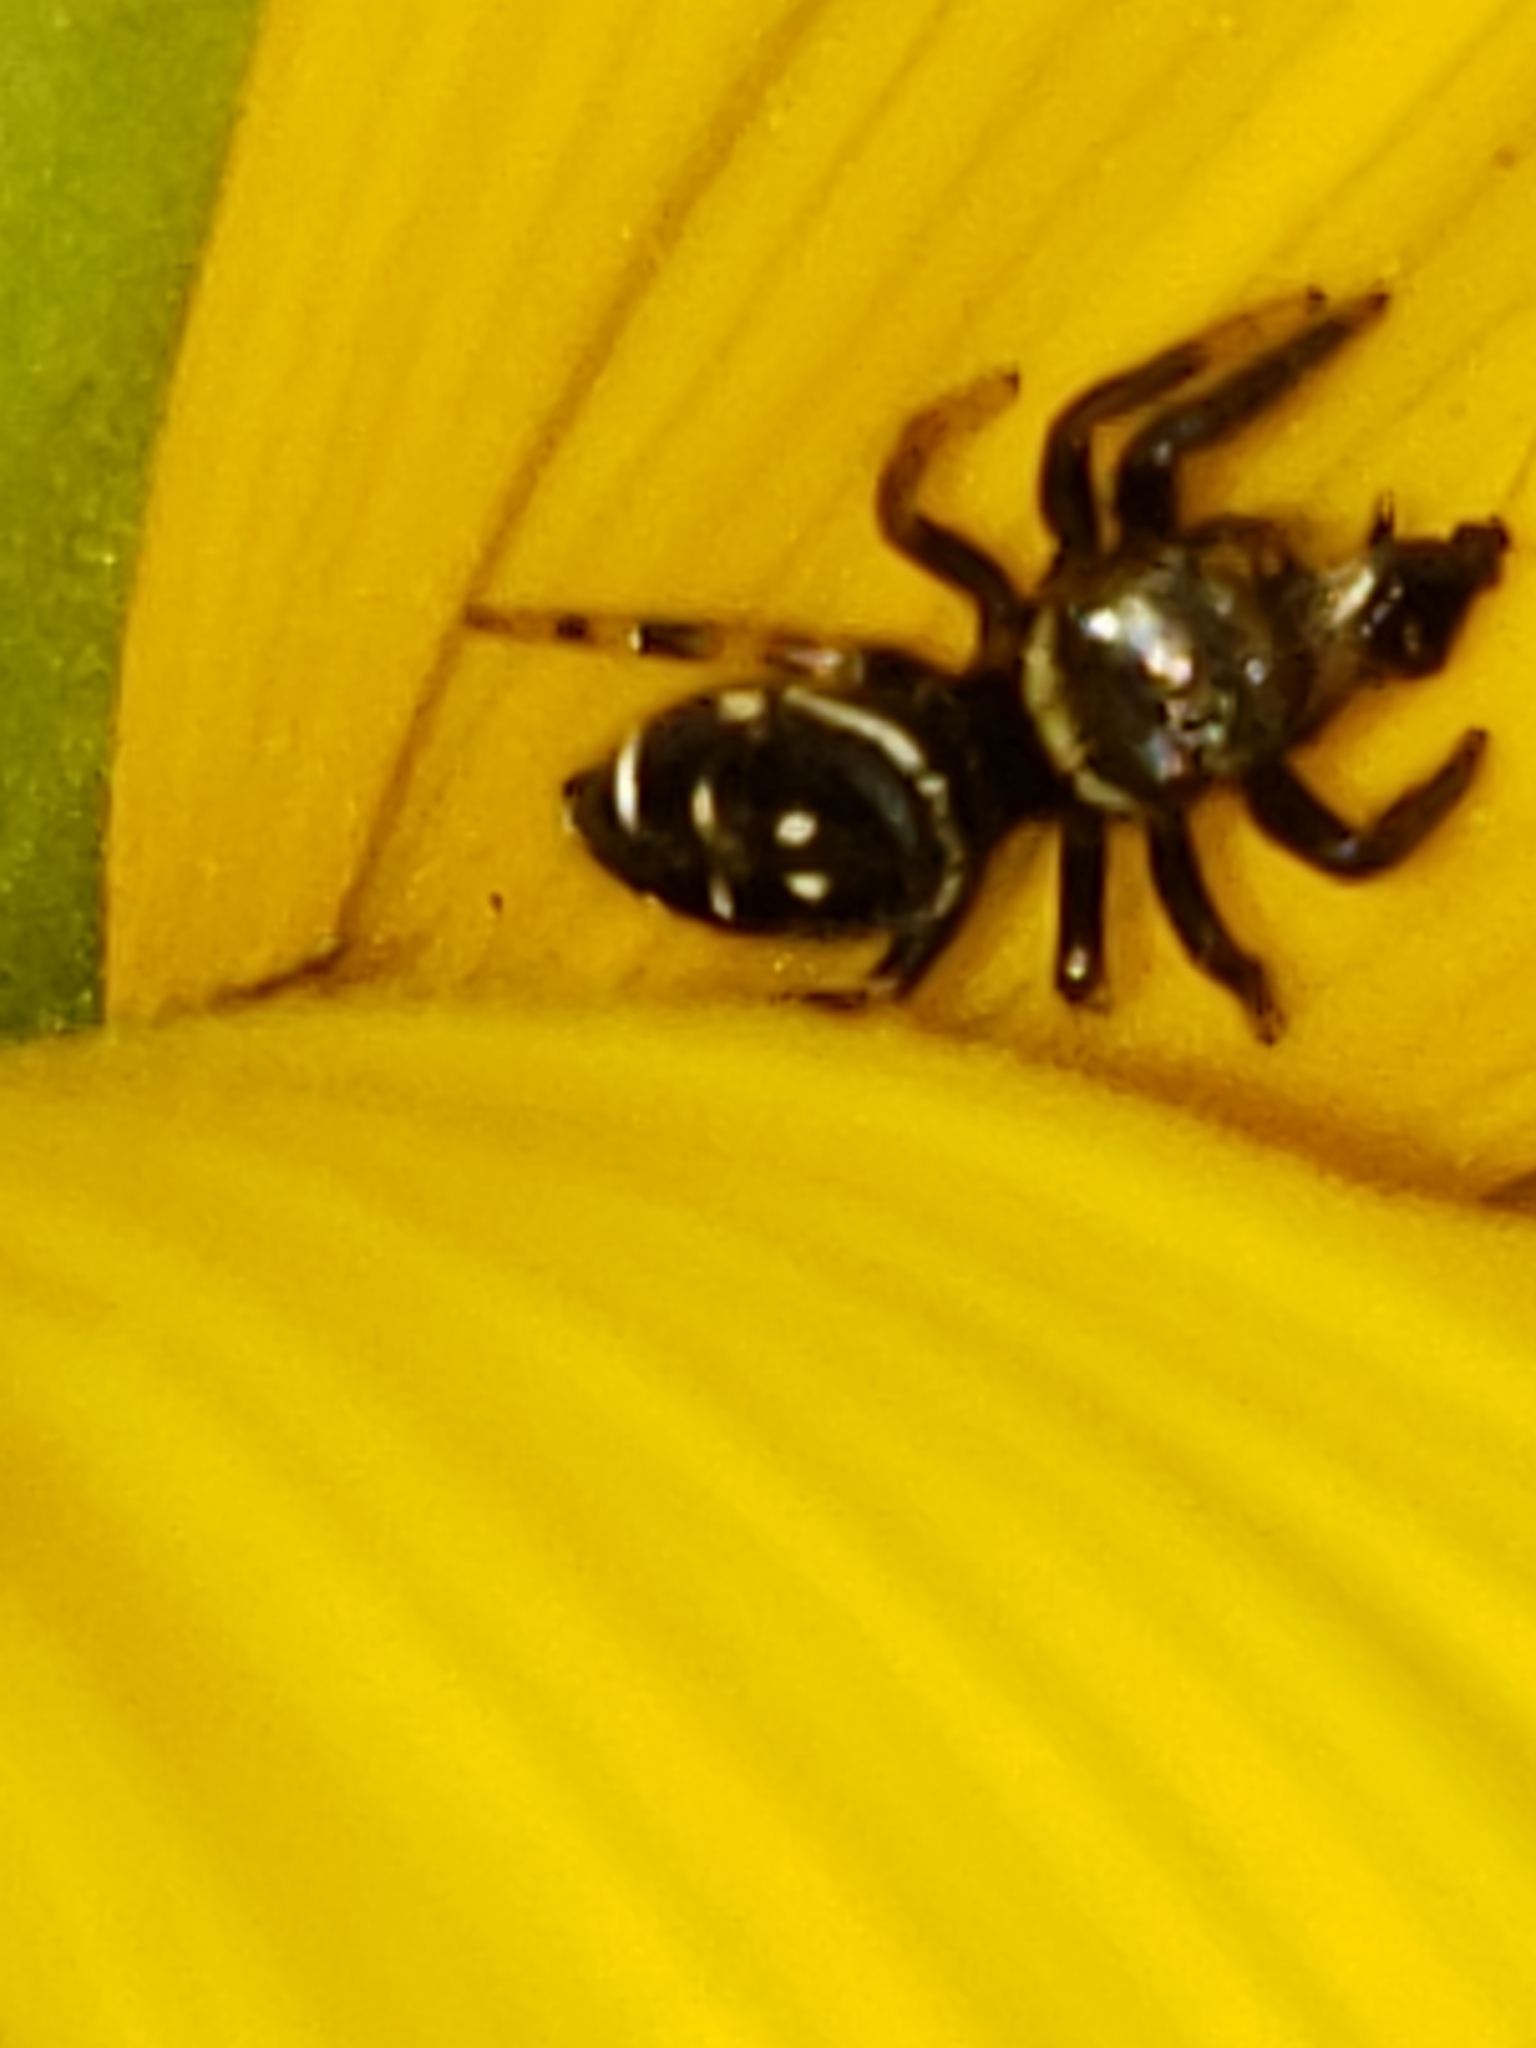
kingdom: Animalia
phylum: Arthropoda
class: Arachnida
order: Araneae
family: Salticidae
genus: Paraphidippus
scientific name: Paraphidippus aurantius
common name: Jumping spiders
